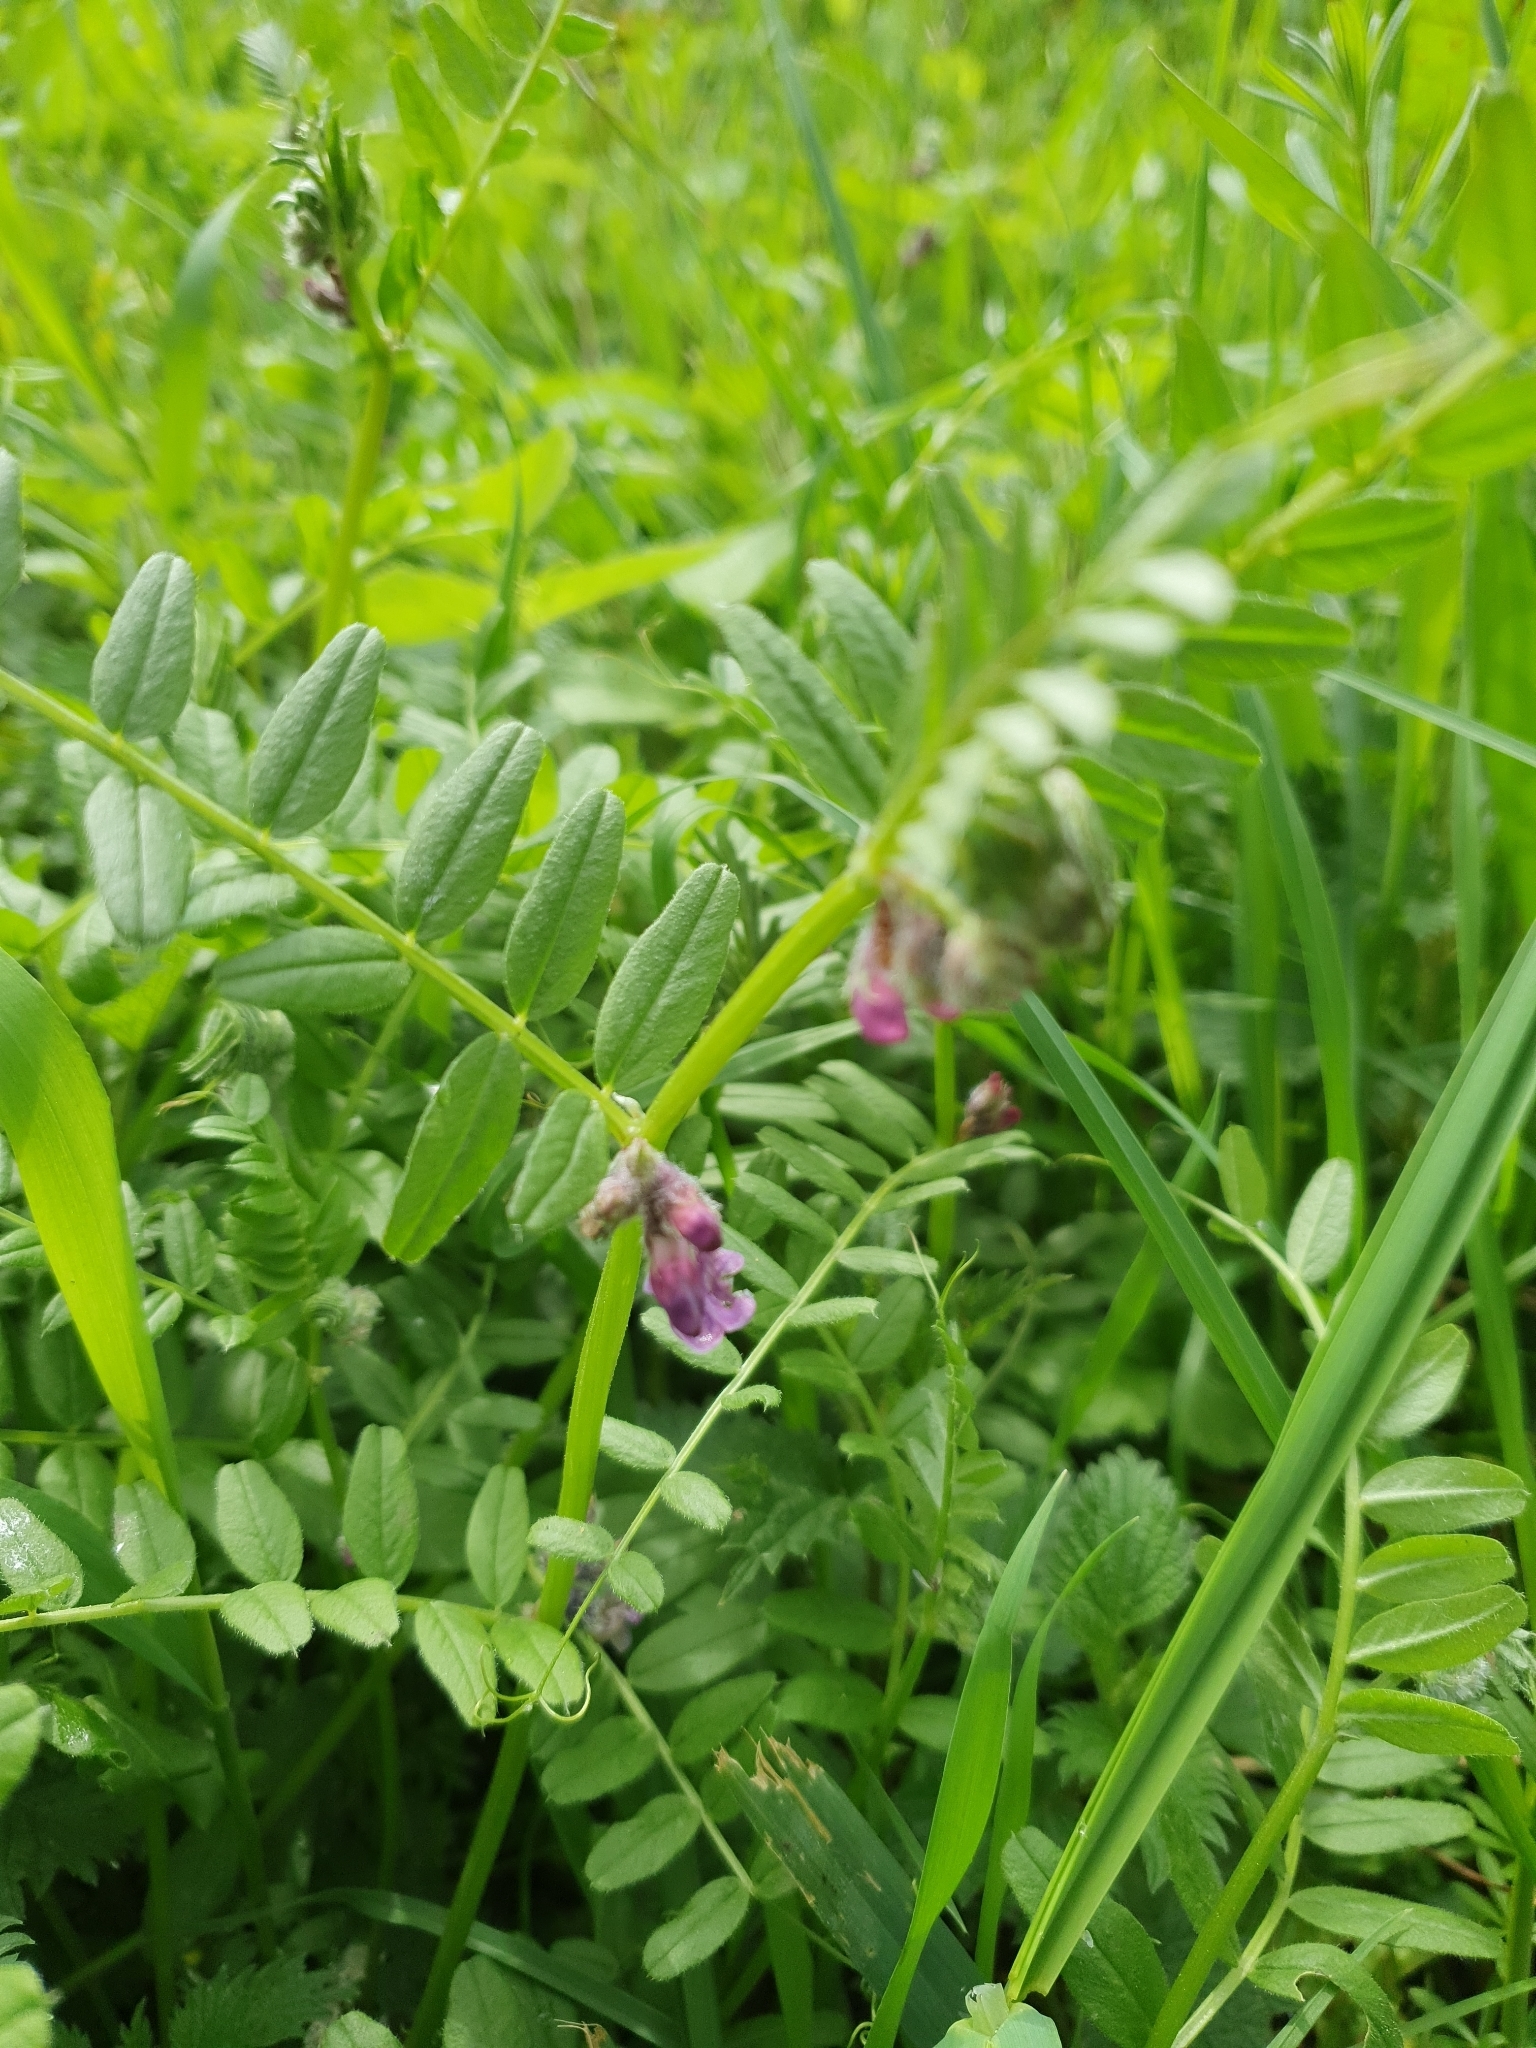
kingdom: Plantae
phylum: Tracheophyta
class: Magnoliopsida
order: Fabales
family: Fabaceae
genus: Vicia
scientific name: Vicia sepium
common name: Bush vetch
